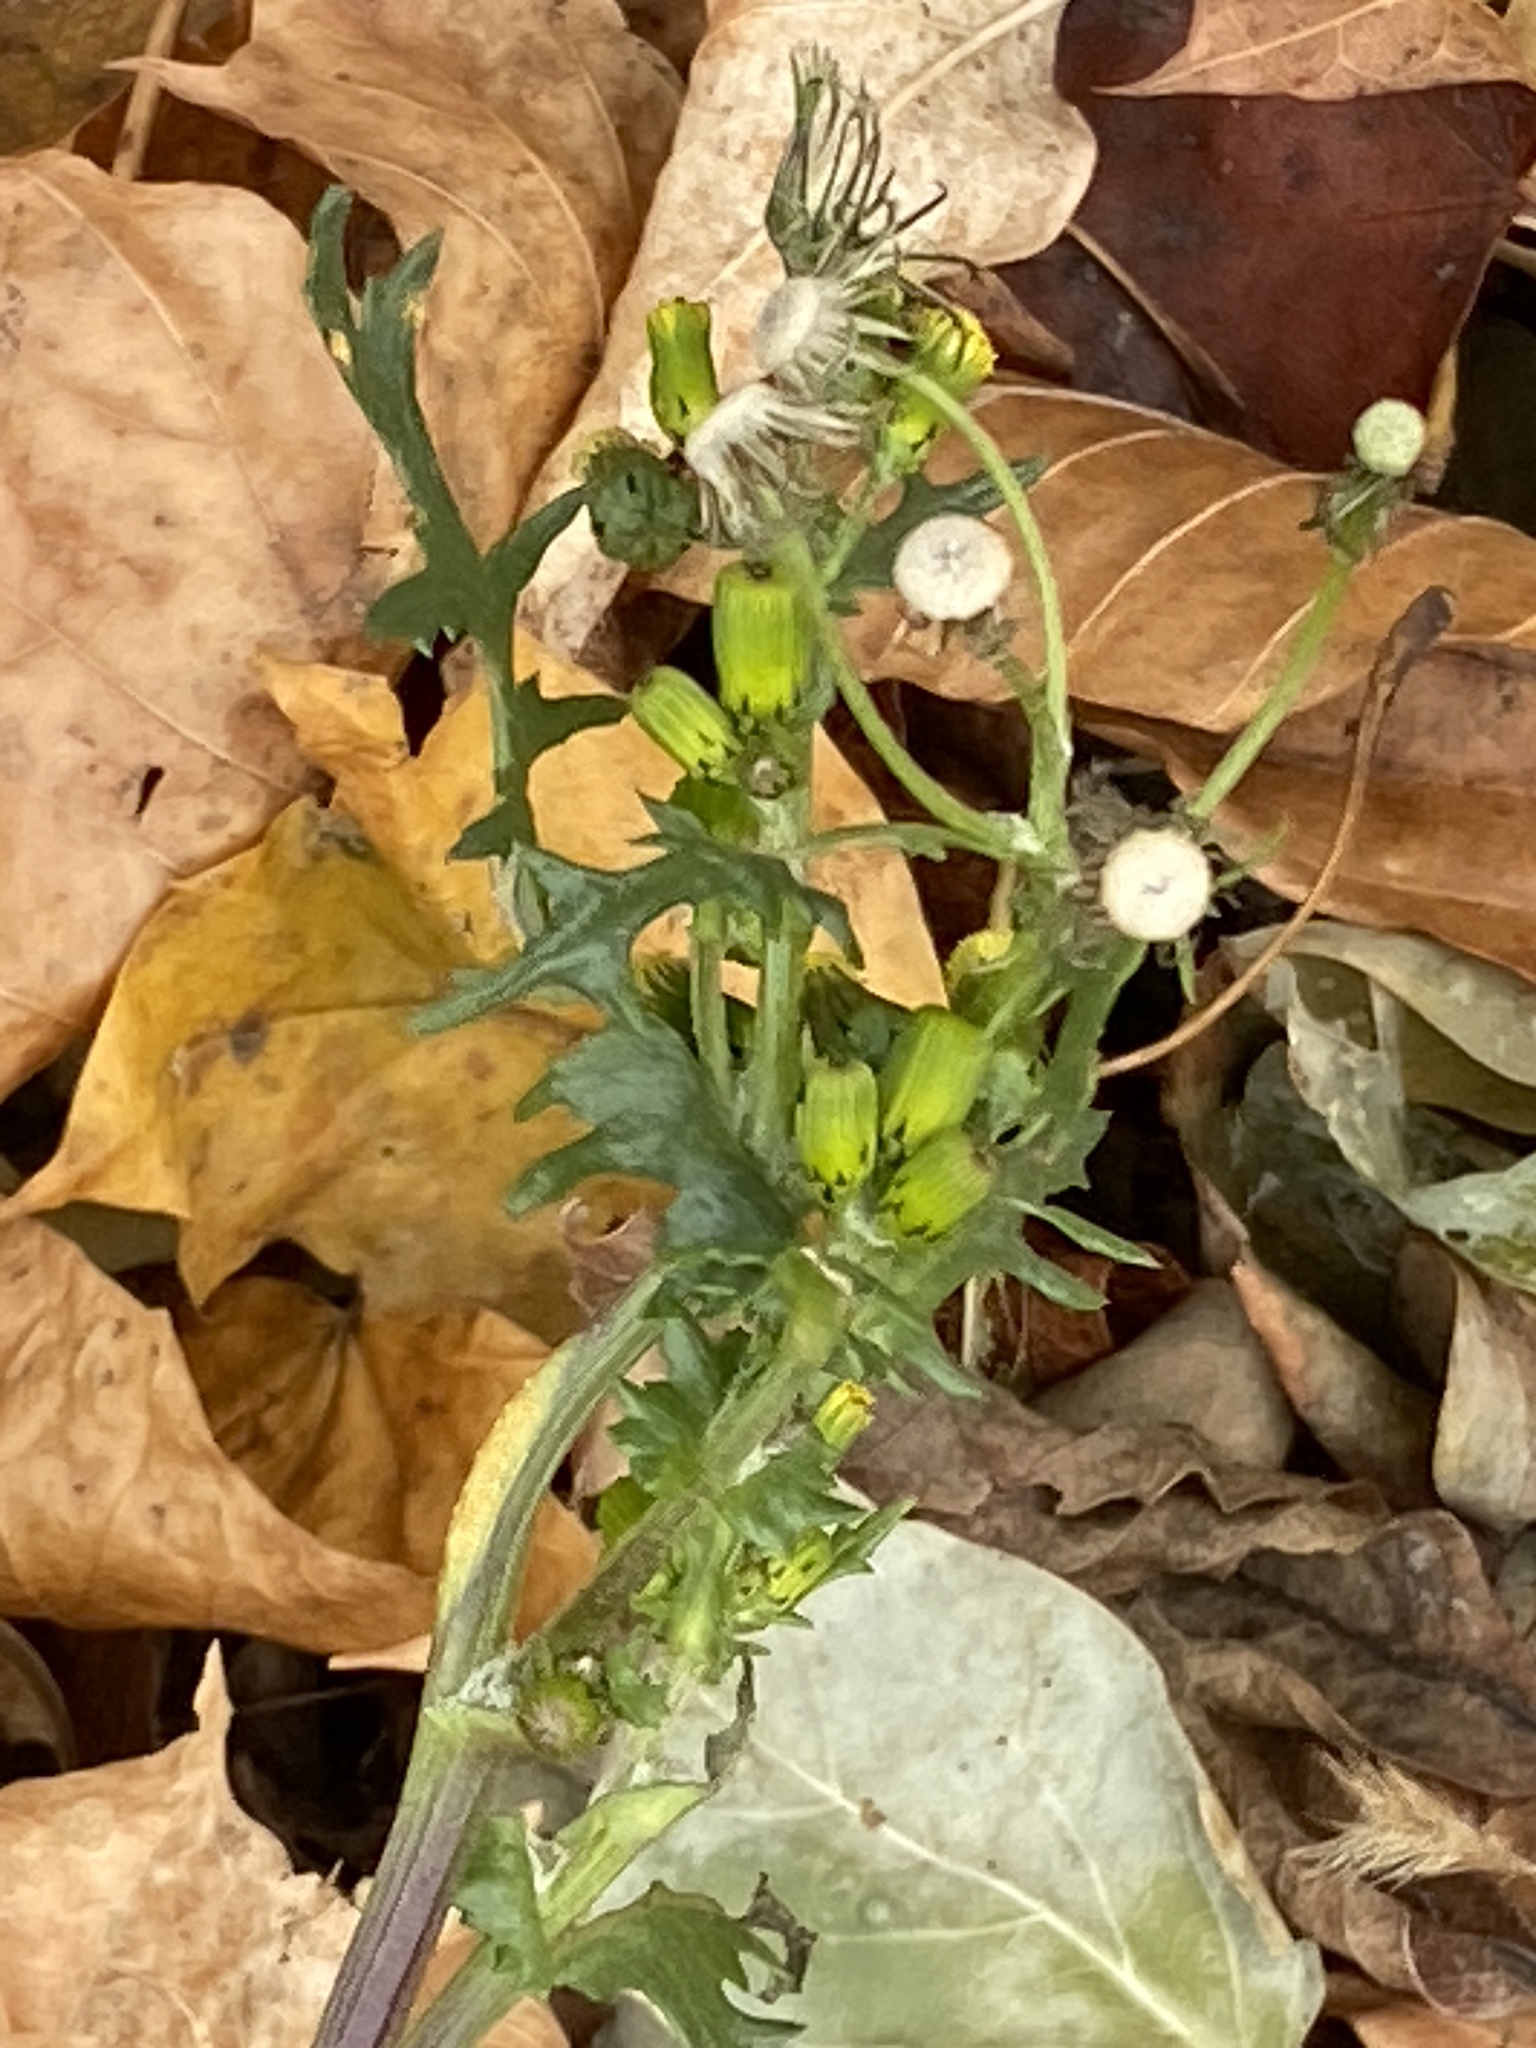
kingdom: Plantae
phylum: Tracheophyta
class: Magnoliopsida
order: Asterales
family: Asteraceae
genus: Senecio
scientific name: Senecio vulgaris
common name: Old-man-in-the-spring
